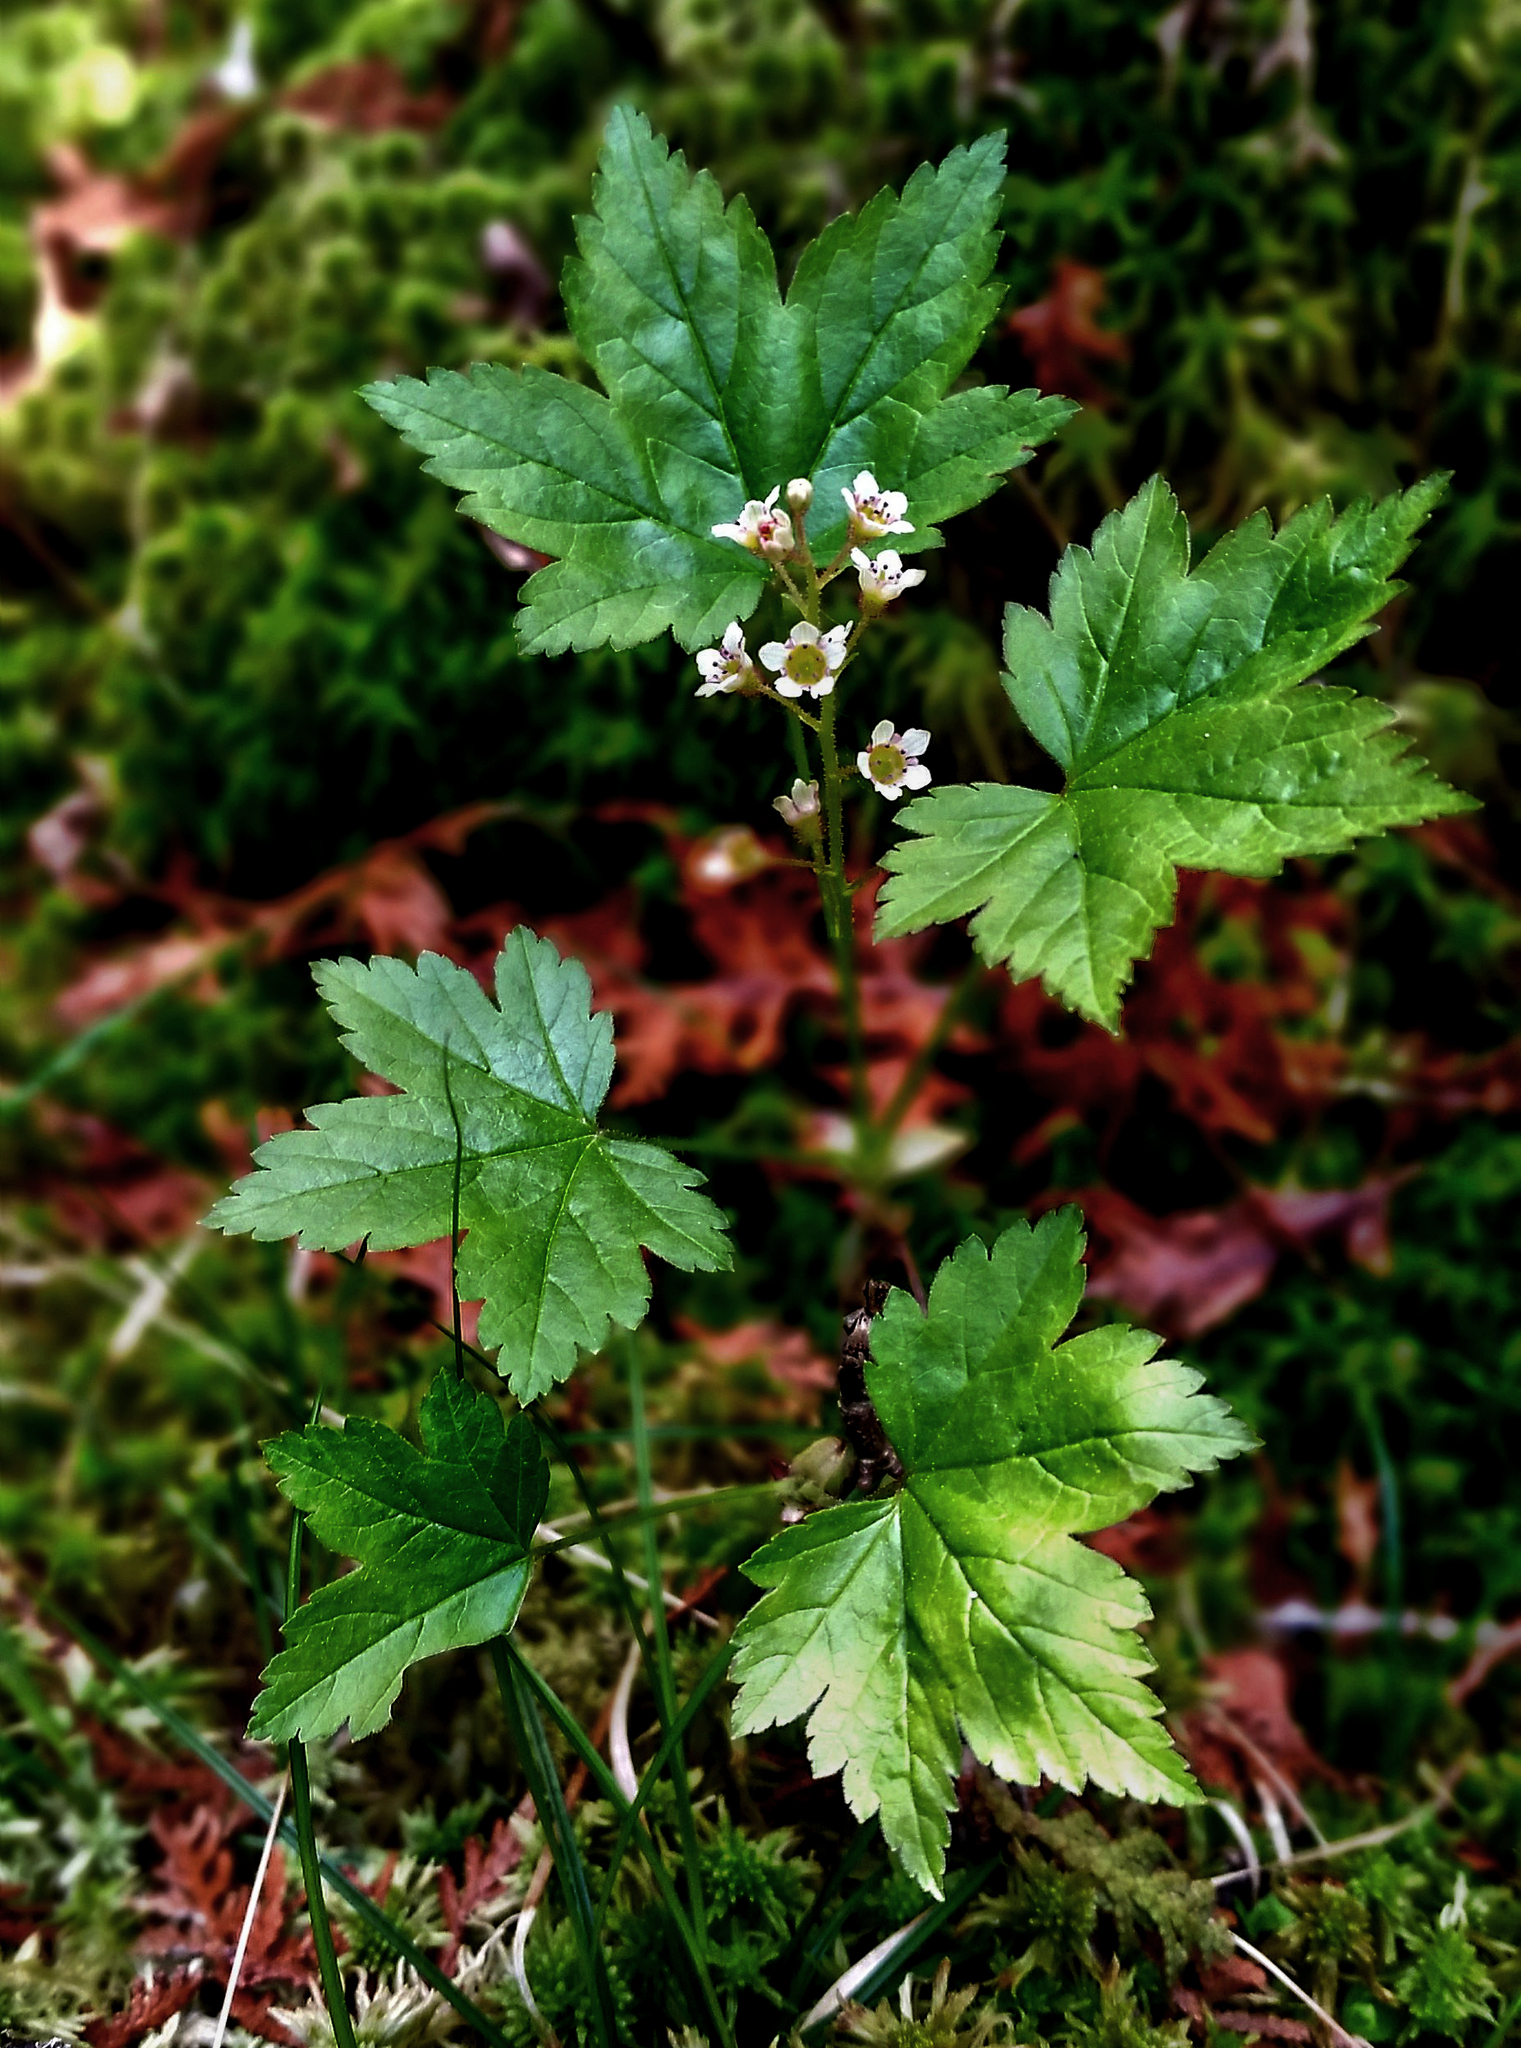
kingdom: Plantae
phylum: Tracheophyta
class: Magnoliopsida
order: Saxifragales
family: Grossulariaceae
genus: Ribes
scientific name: Ribes glandulosum
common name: Skunk currant
